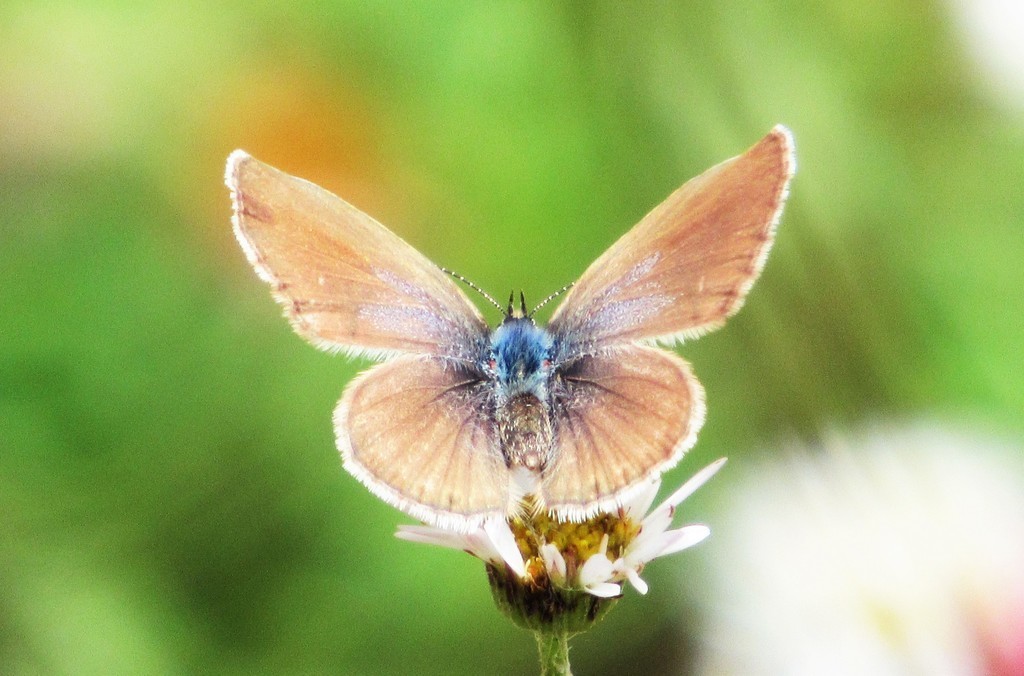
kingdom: Plantae
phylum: Tracheophyta
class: Magnoliopsida
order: Asterales
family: Asteraceae
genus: Erigeron
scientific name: Erigeron karvinskianus
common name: Mexican fleabane
